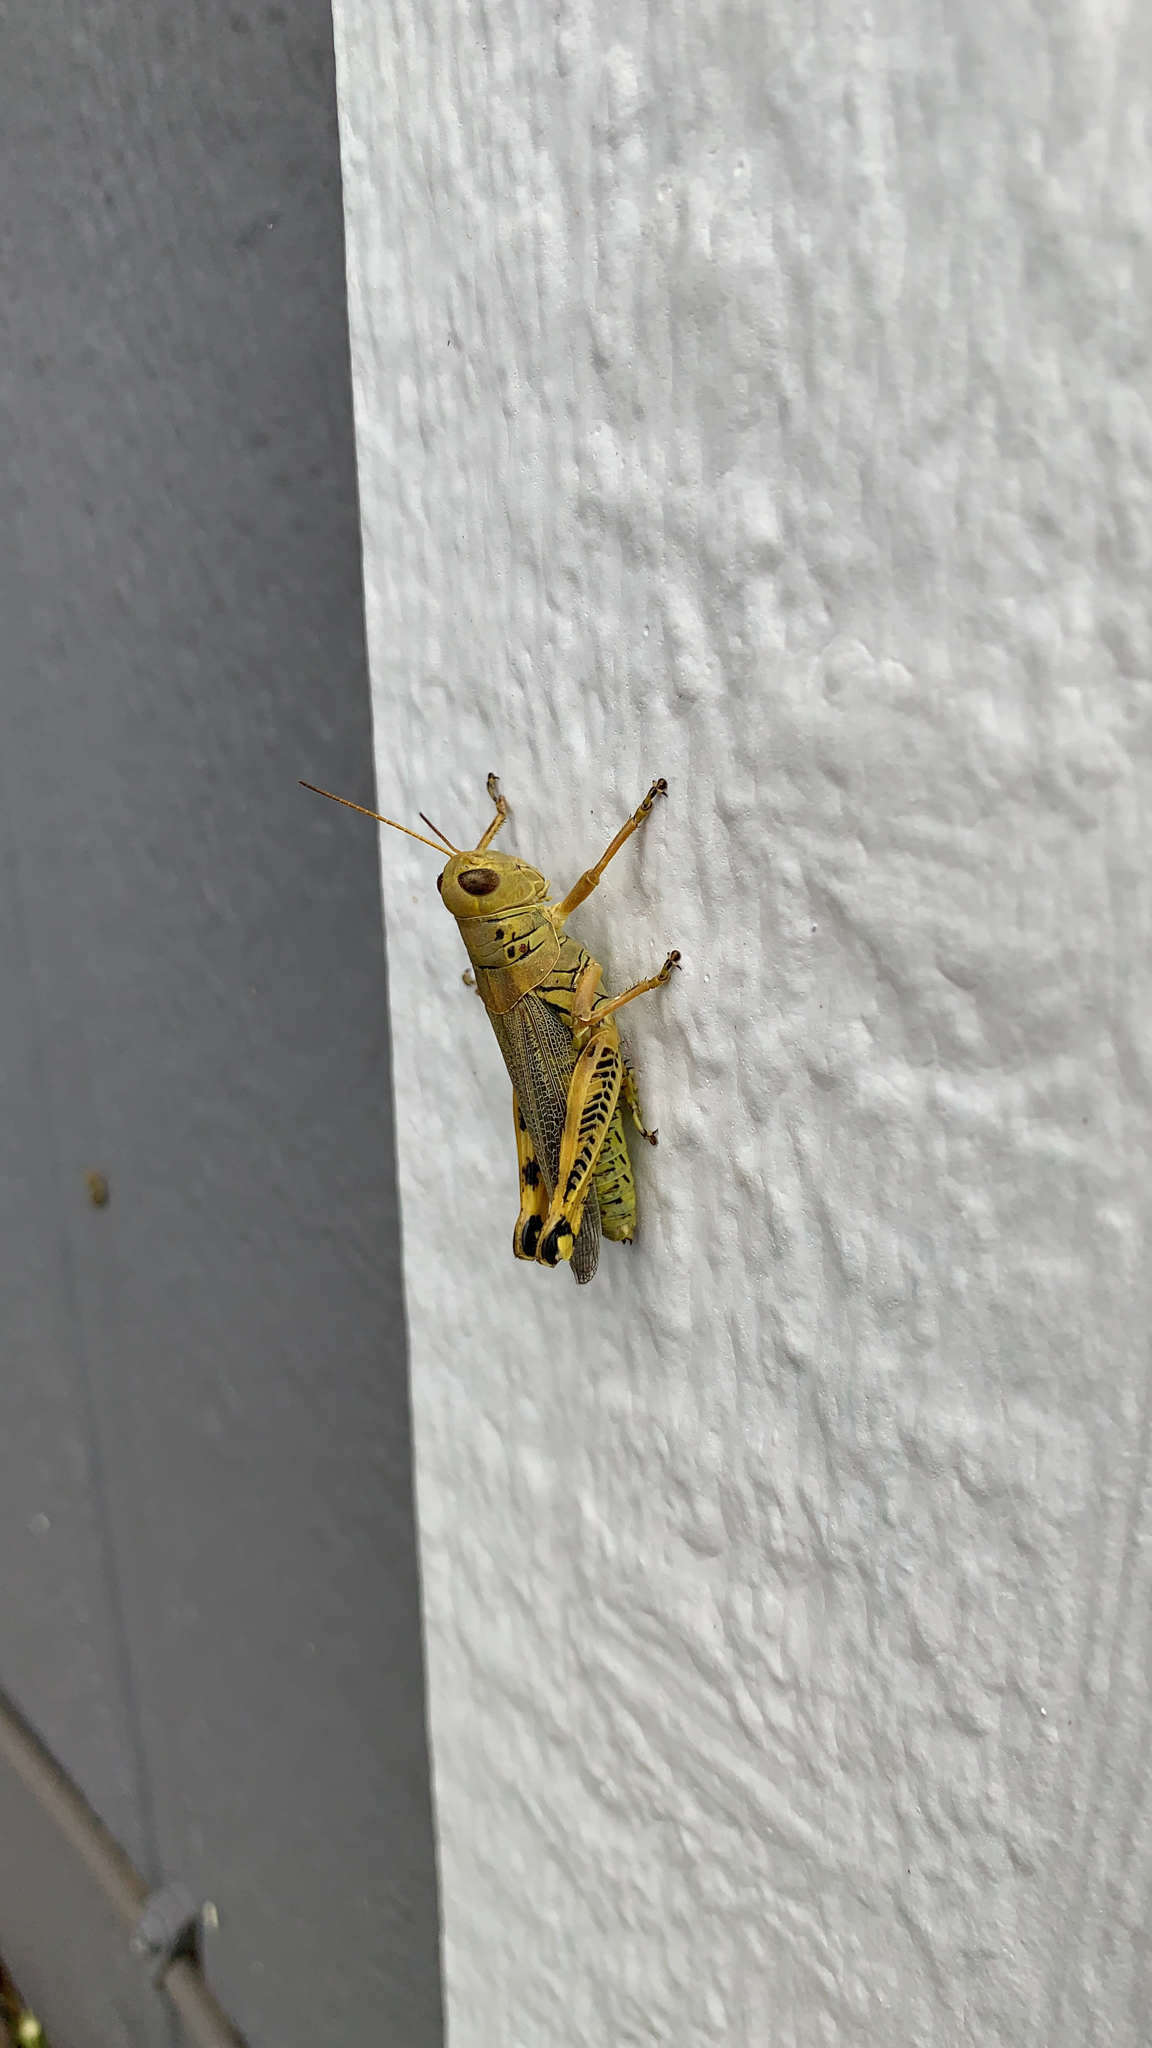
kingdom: Animalia
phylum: Arthropoda
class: Insecta
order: Orthoptera
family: Acrididae
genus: Melanoplus
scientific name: Melanoplus differentialis
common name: Differential grasshopper
